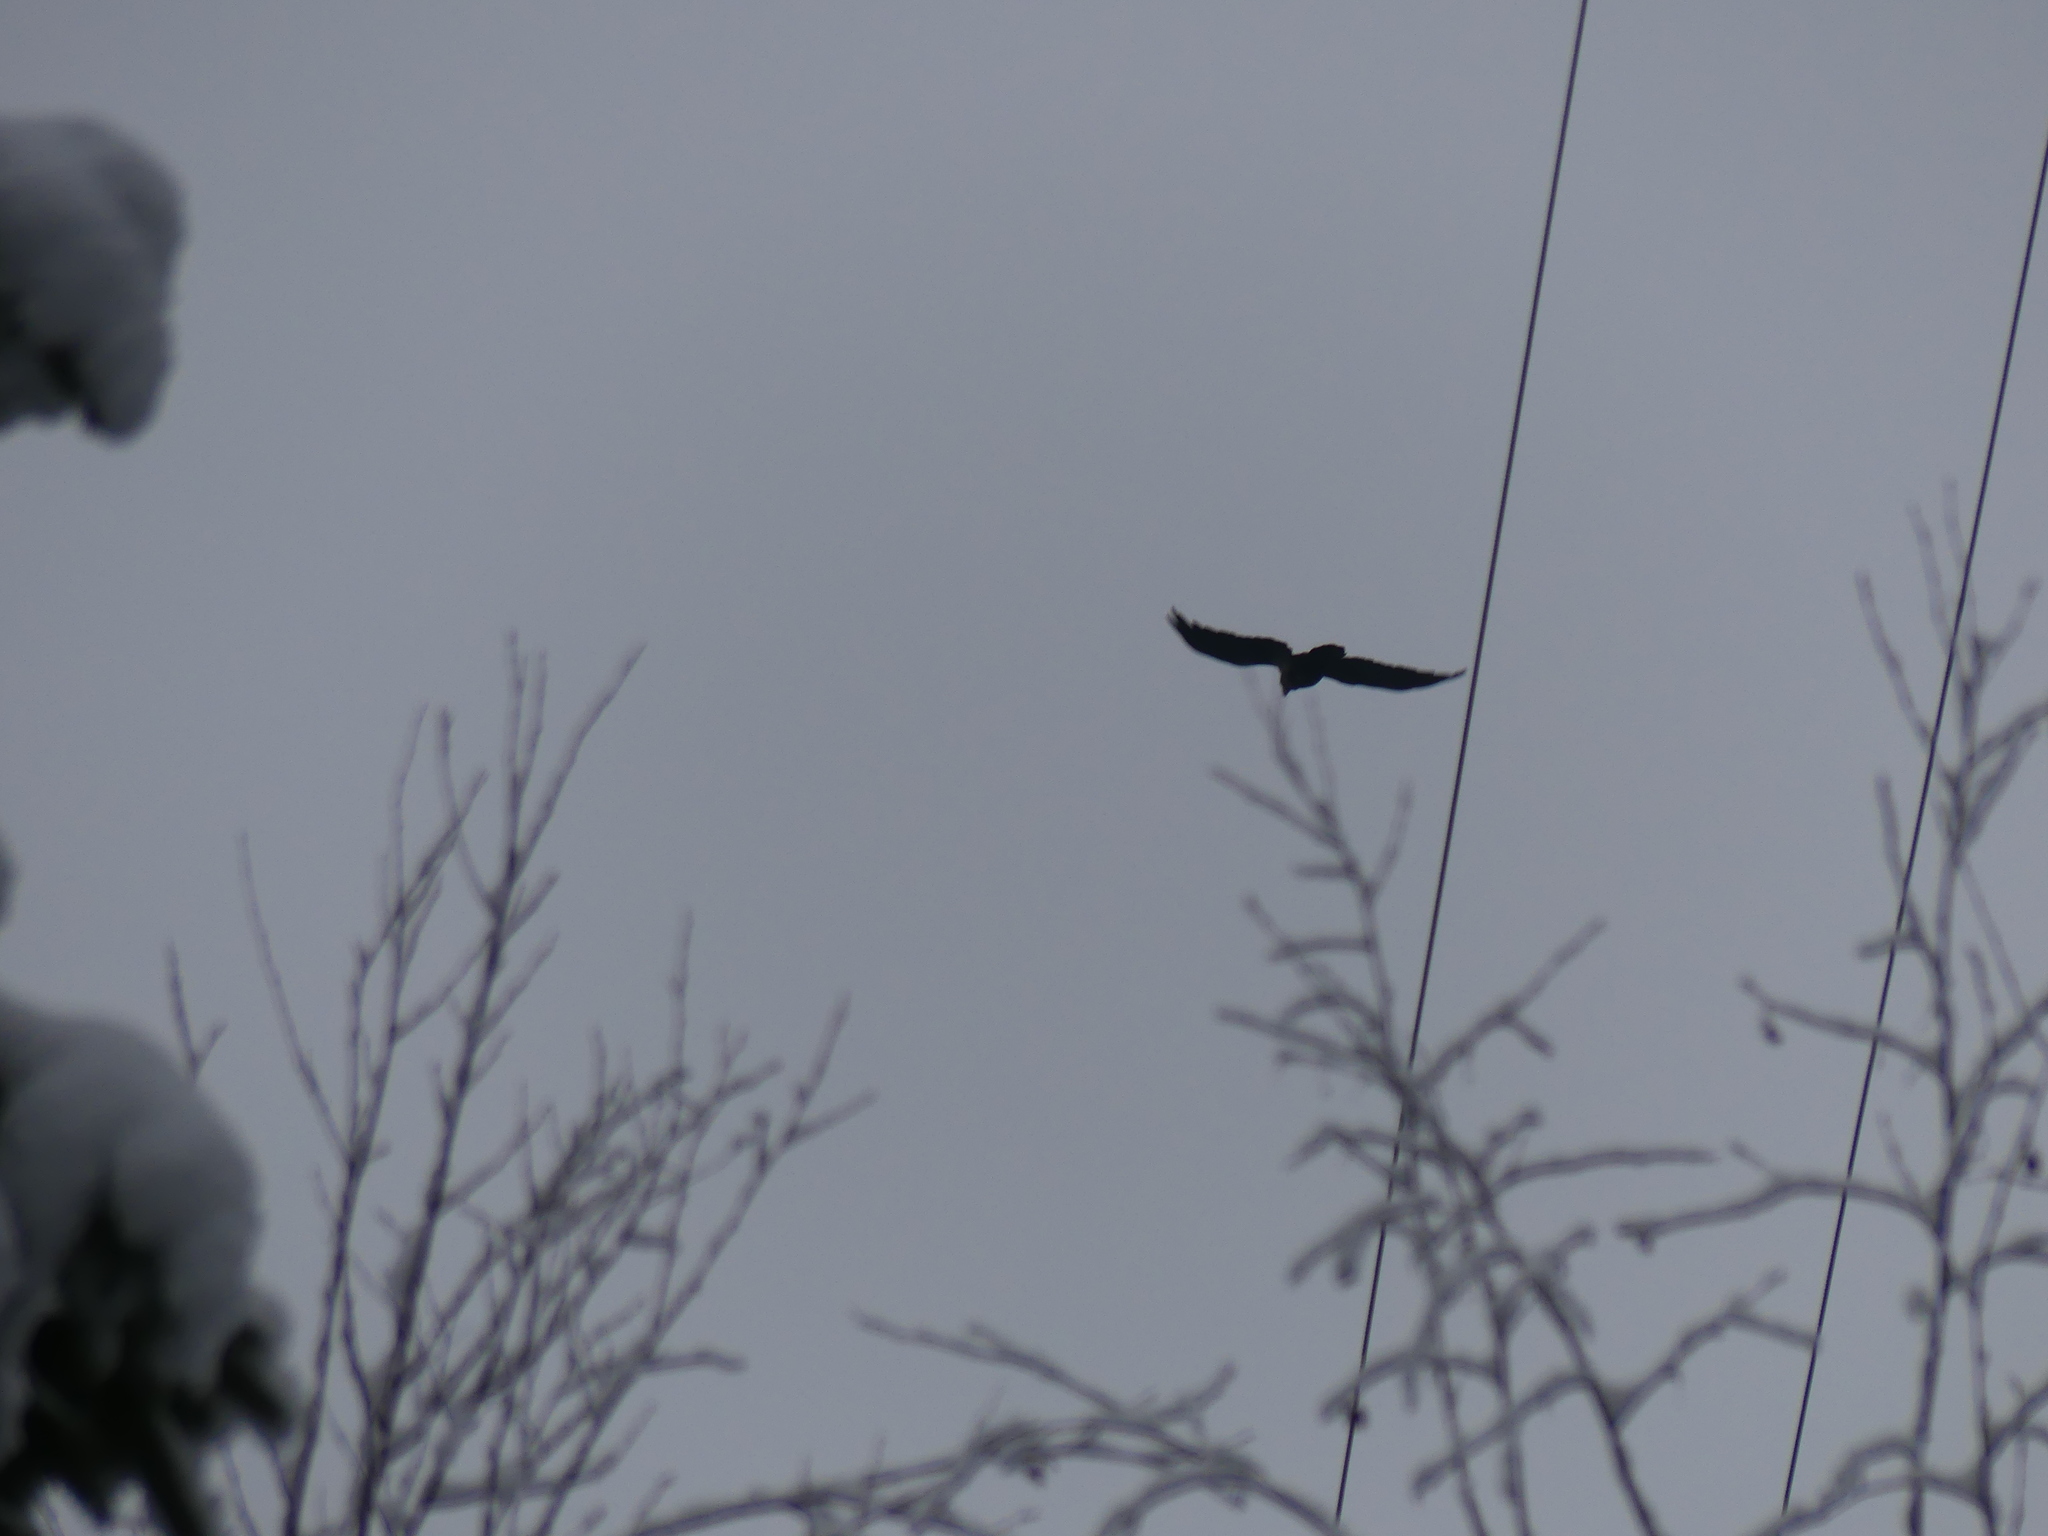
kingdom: Animalia
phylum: Chordata
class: Aves
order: Passeriformes
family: Corvidae
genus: Corvus
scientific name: Corvus corax
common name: Common raven
